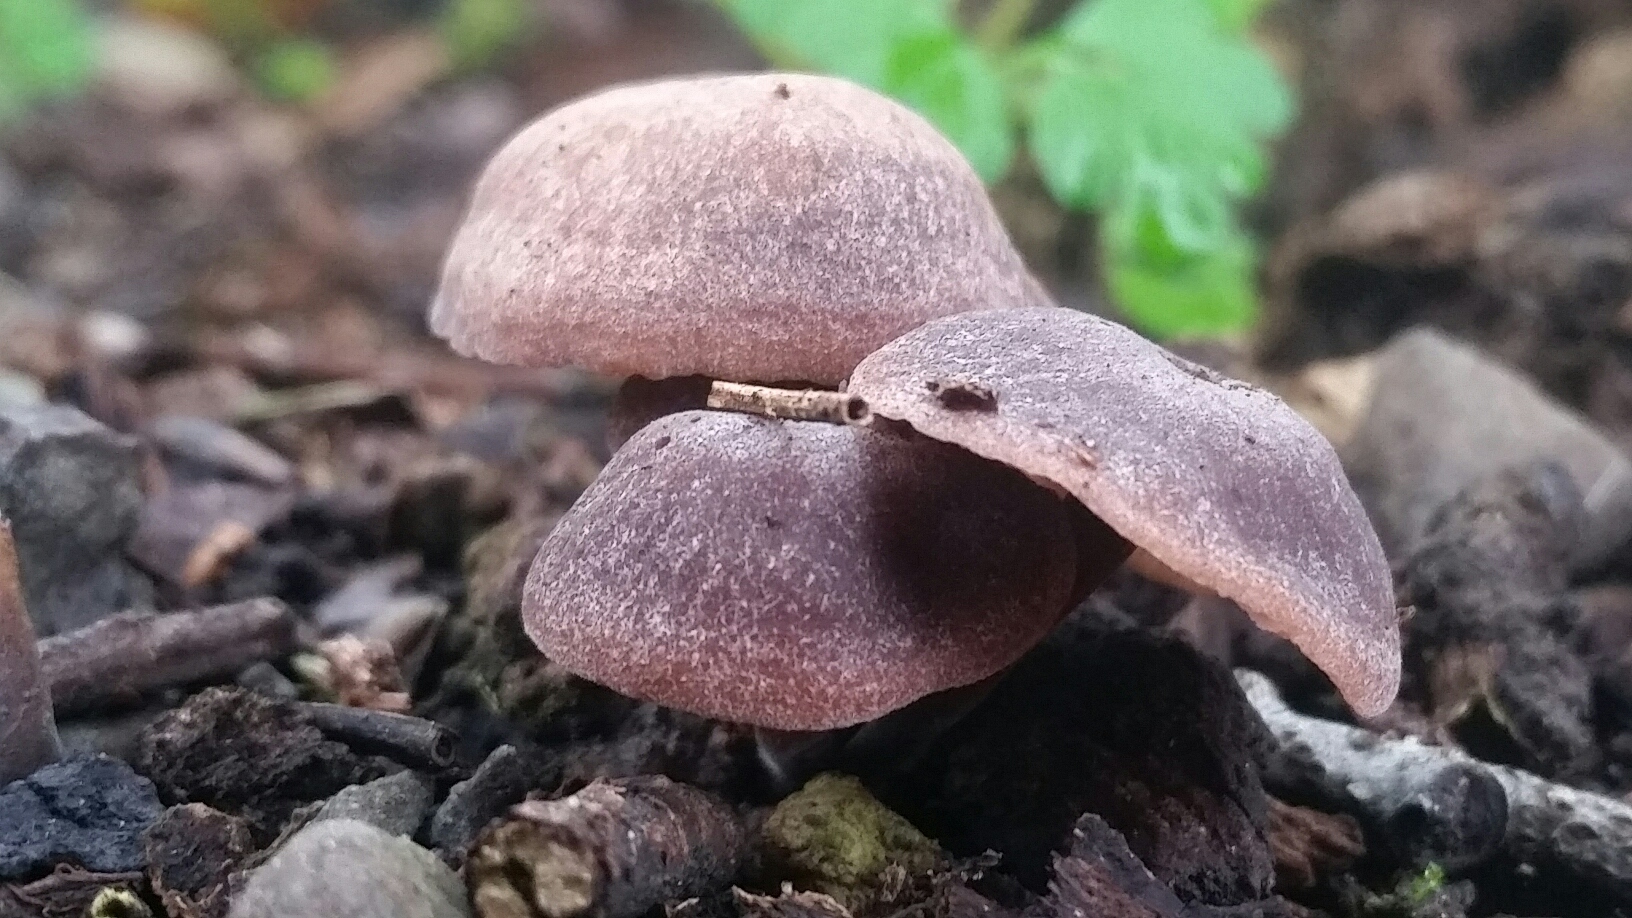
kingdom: Fungi
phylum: Basidiomycota
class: Agaricomycetes
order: Agaricales
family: Omphalotaceae
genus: Gymnopus
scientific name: Gymnopus brassicolens
